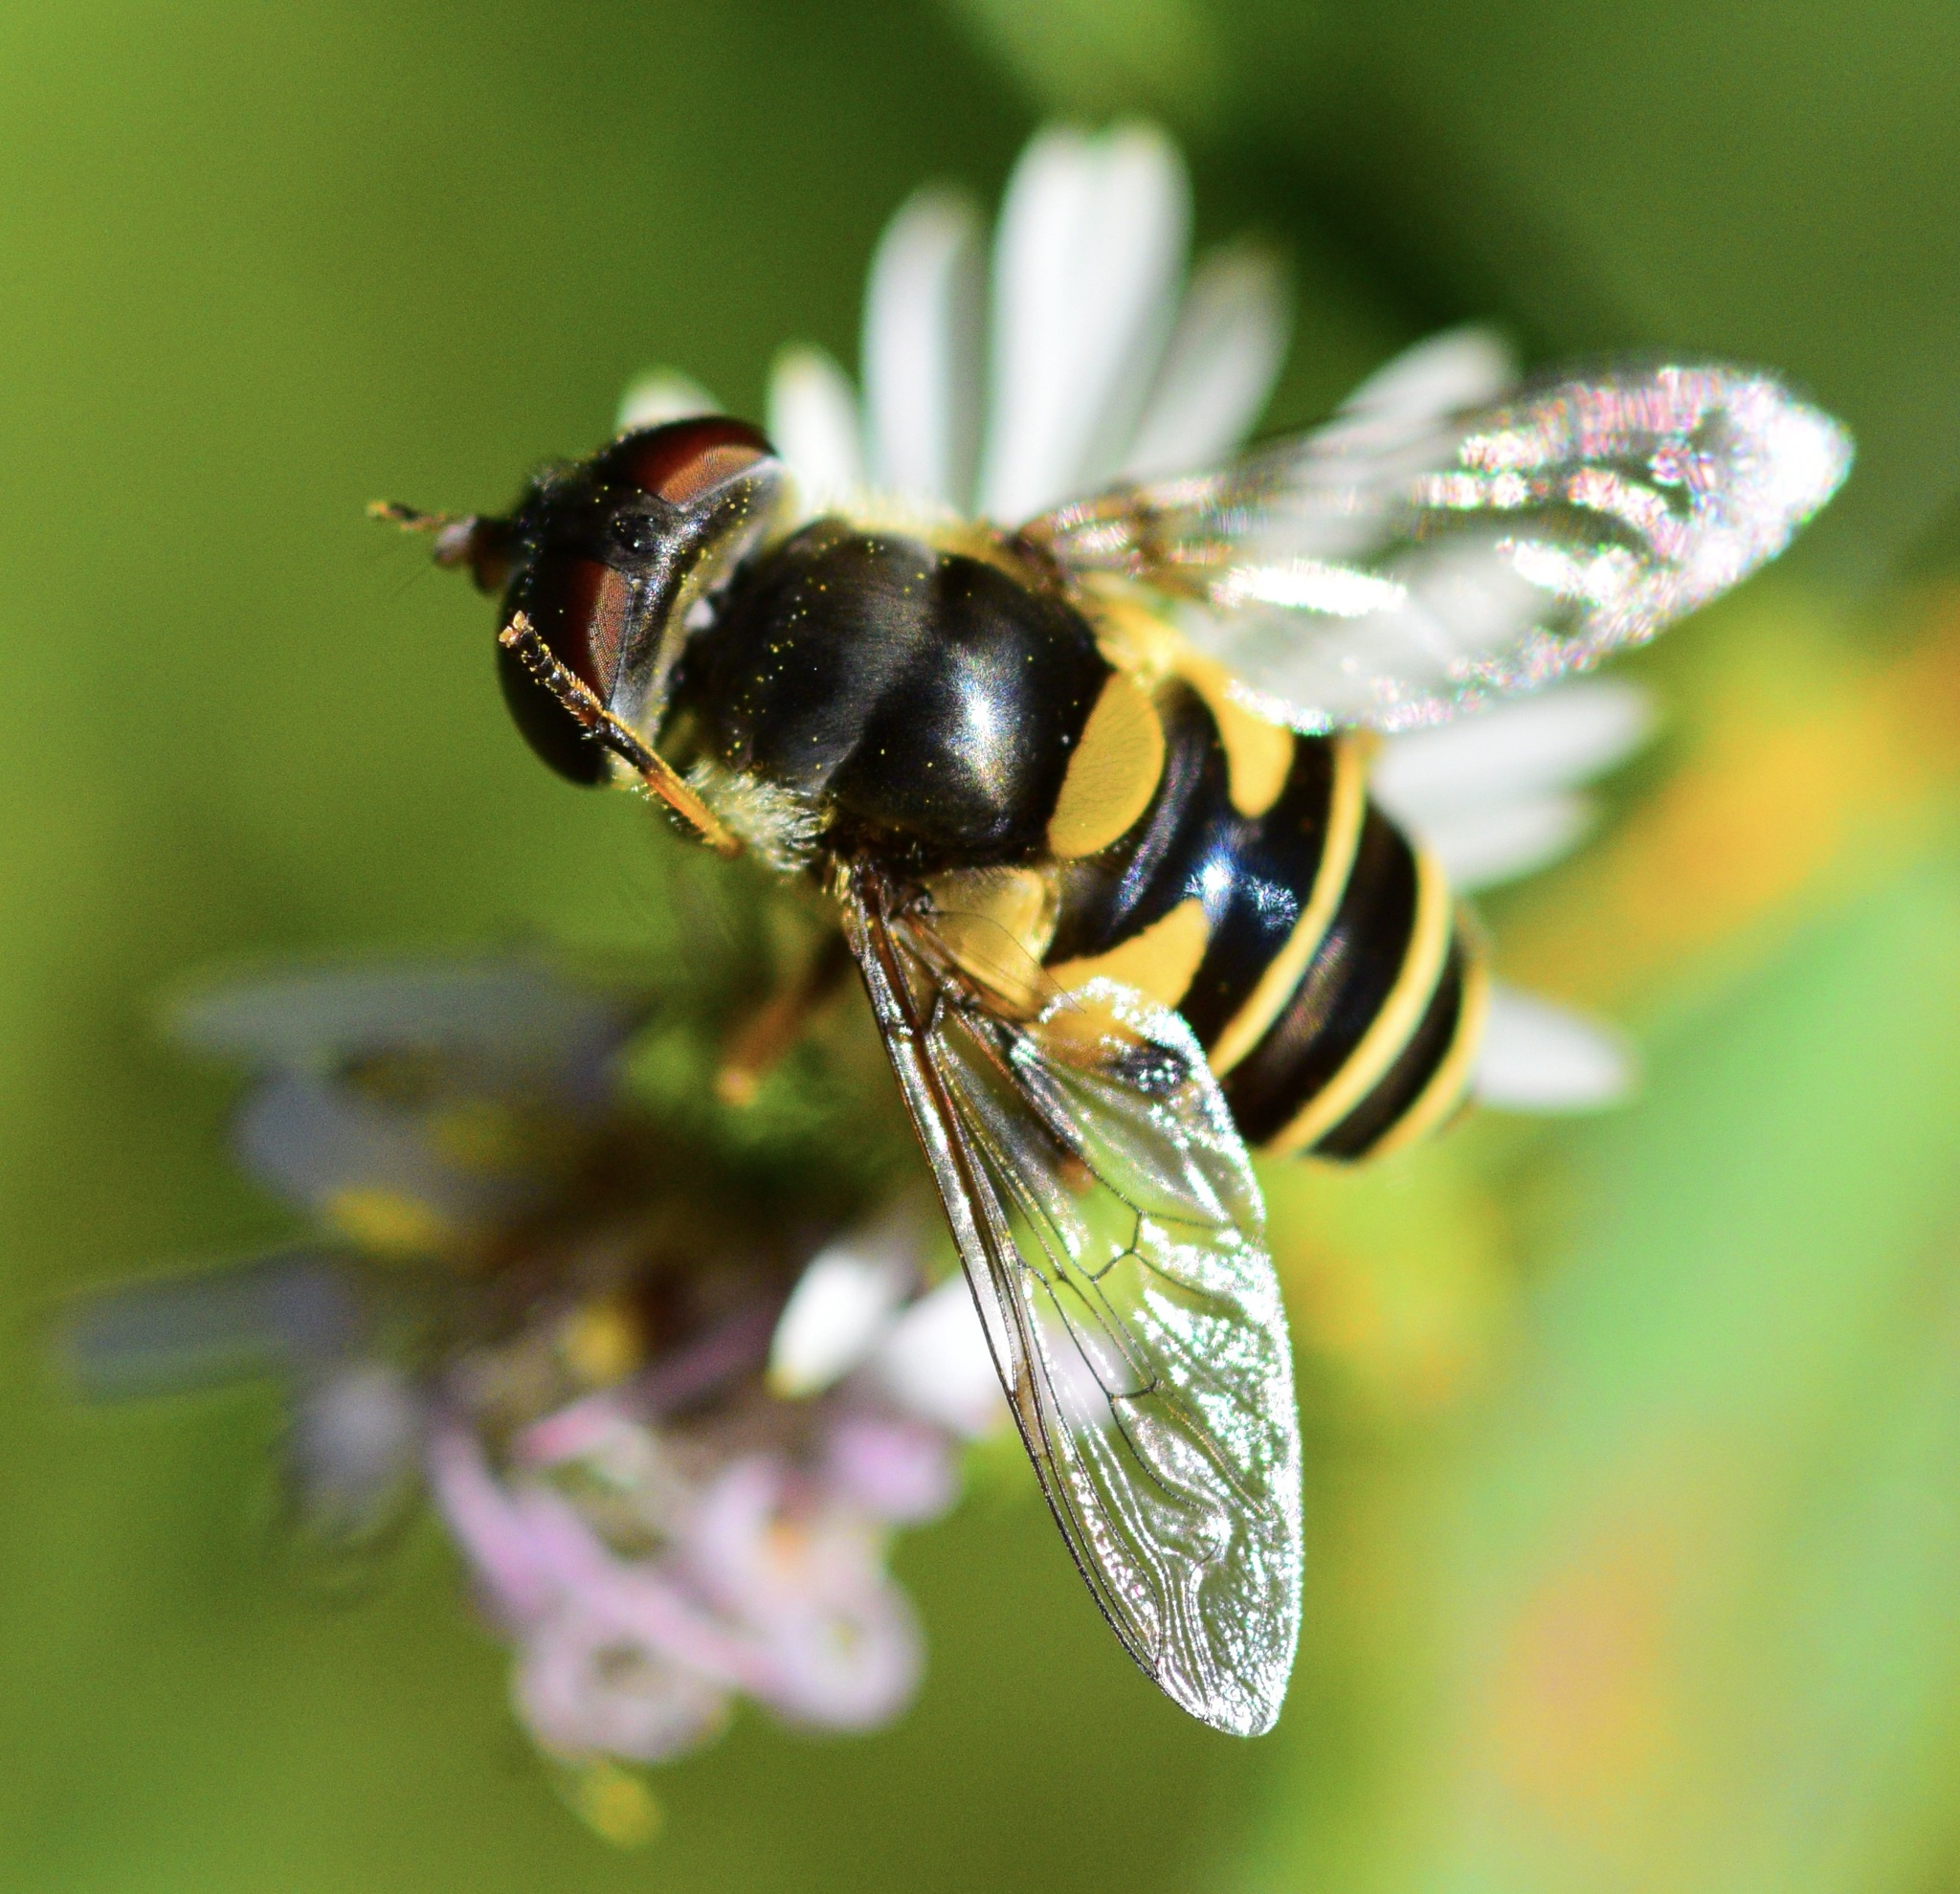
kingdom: Animalia
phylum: Arthropoda
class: Insecta
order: Diptera
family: Syrphidae
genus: Eristalis
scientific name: Eristalis transversa
